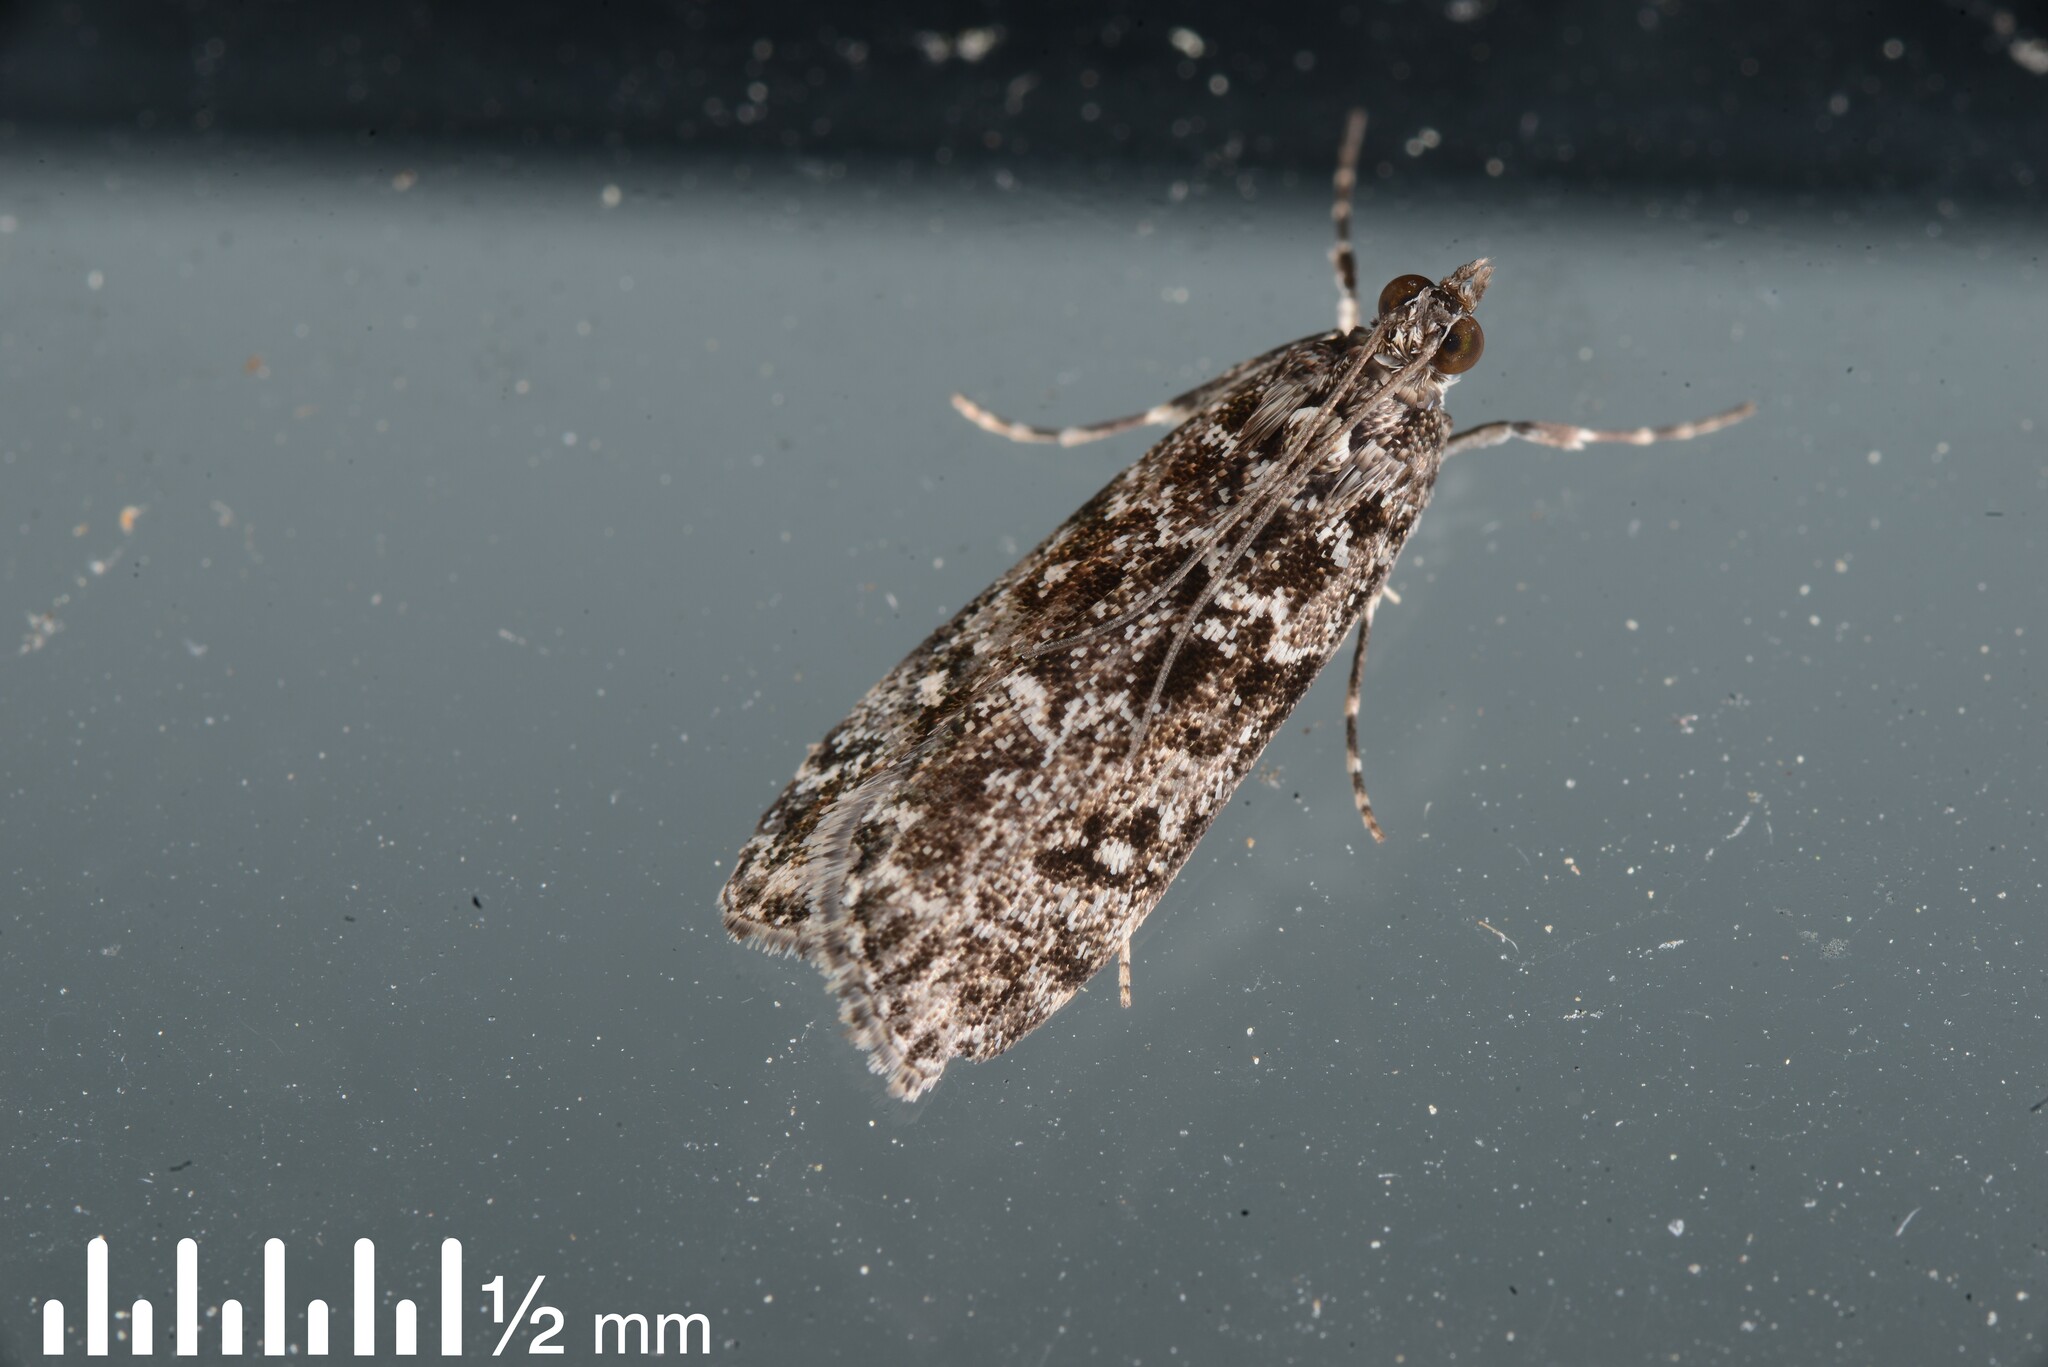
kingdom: Animalia
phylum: Arthropoda
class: Insecta
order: Lepidoptera
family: Crambidae
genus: Eudonia
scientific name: Eudonia philerga
